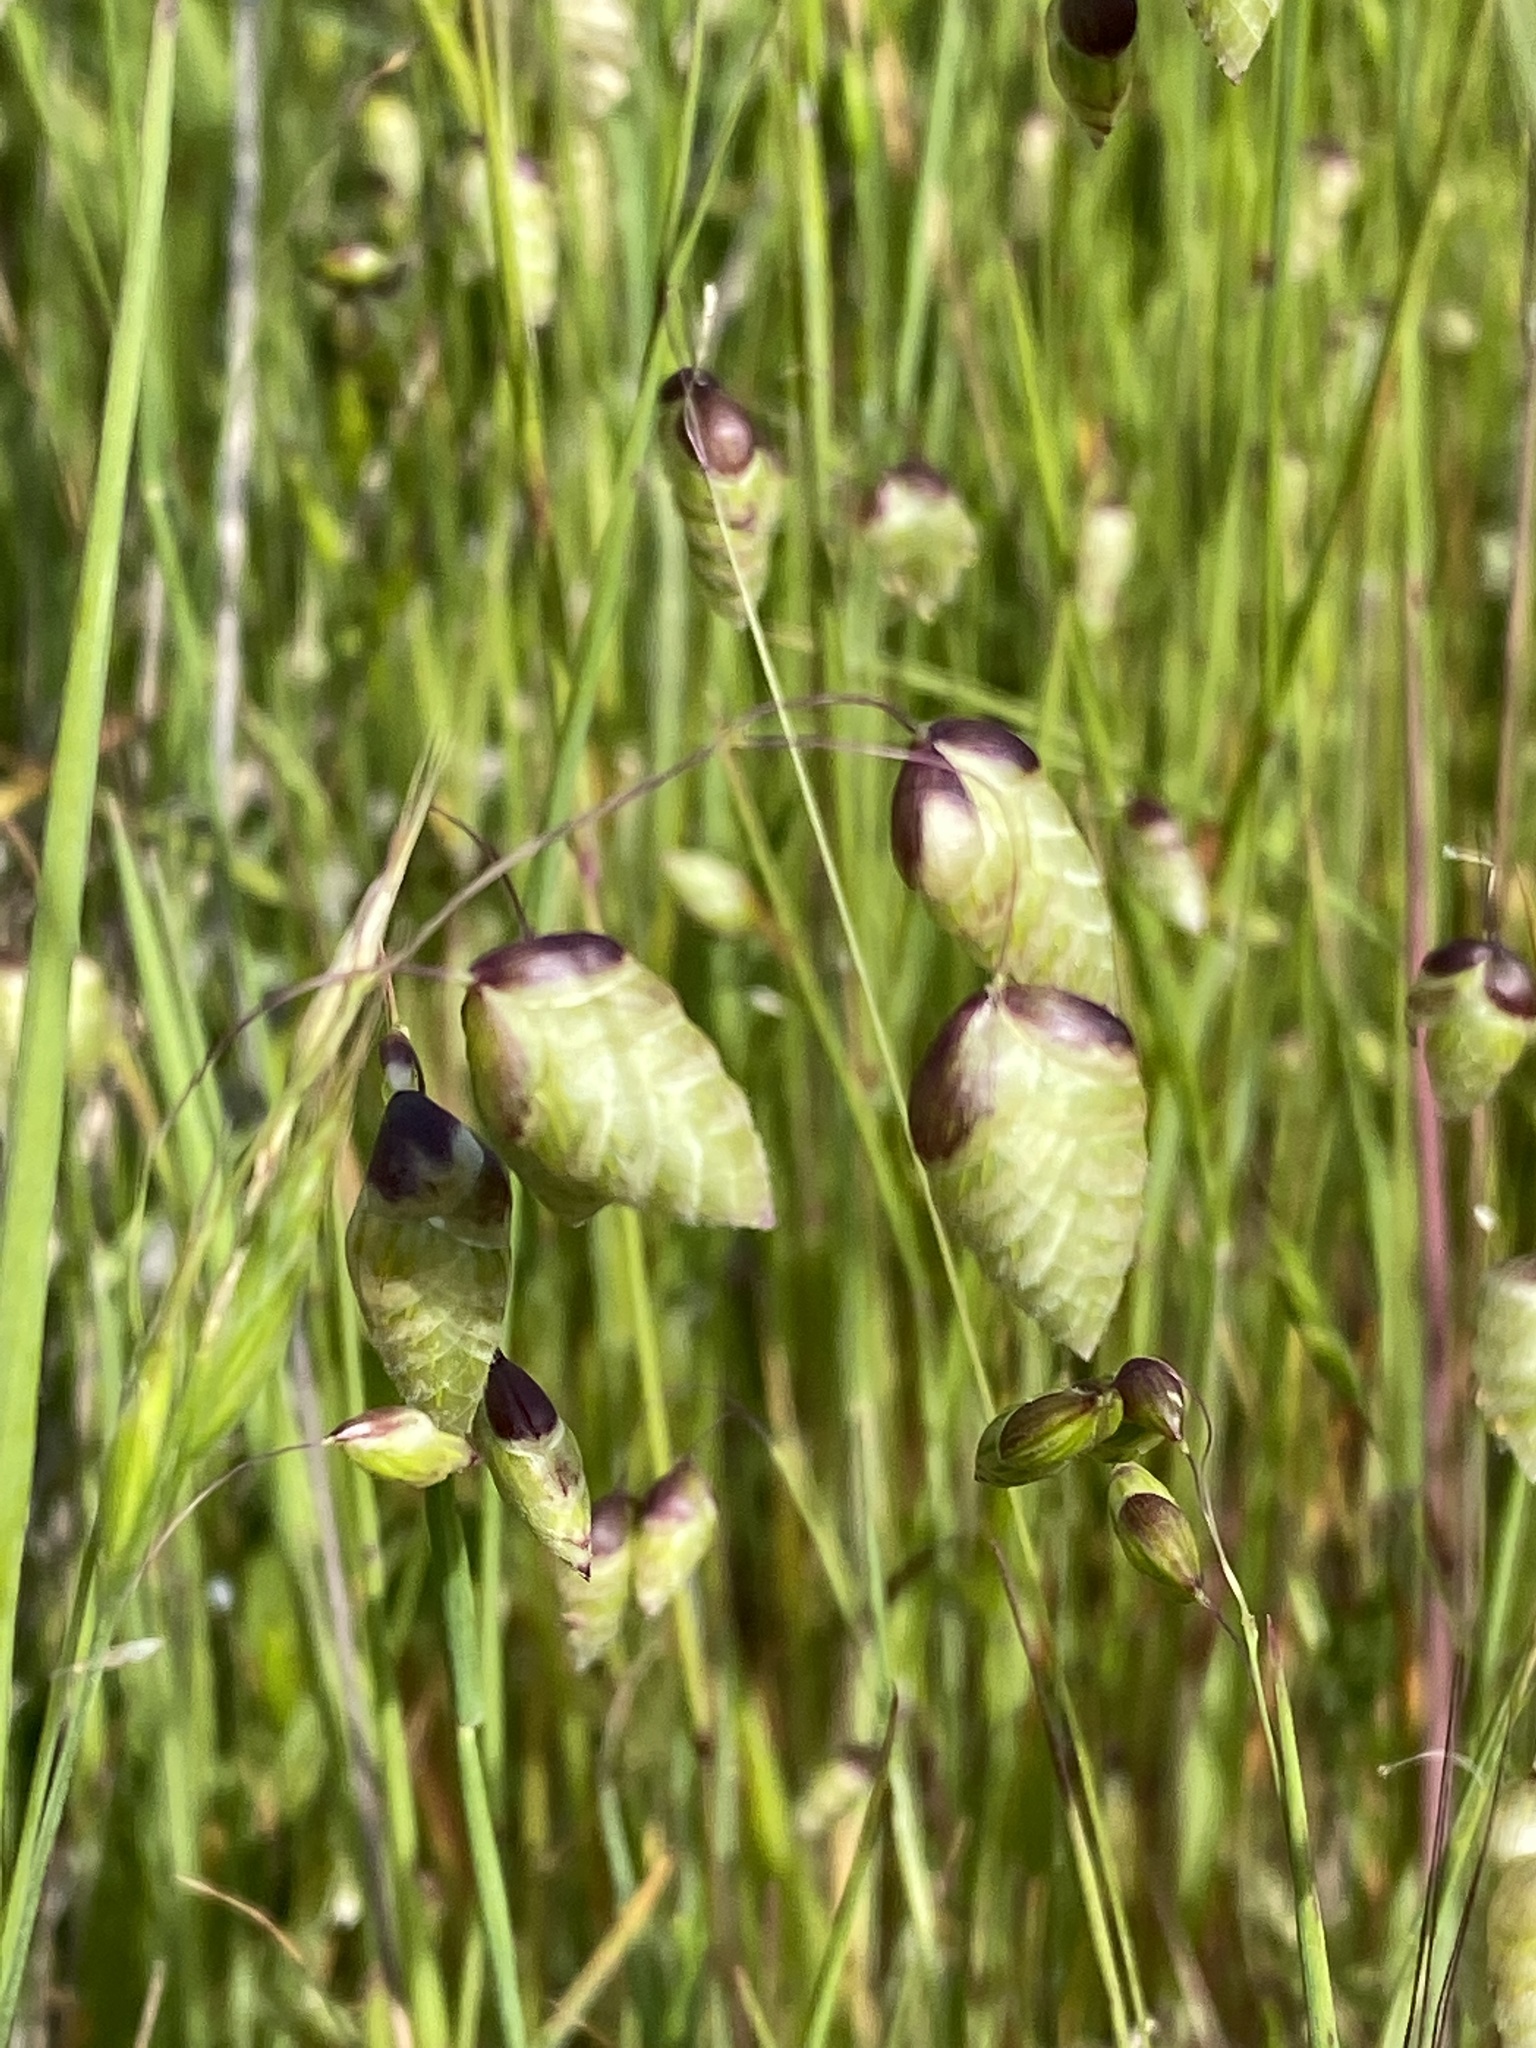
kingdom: Plantae
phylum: Tracheophyta
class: Liliopsida
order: Poales
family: Poaceae
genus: Briza
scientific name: Briza maxima
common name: Big quakinggrass
